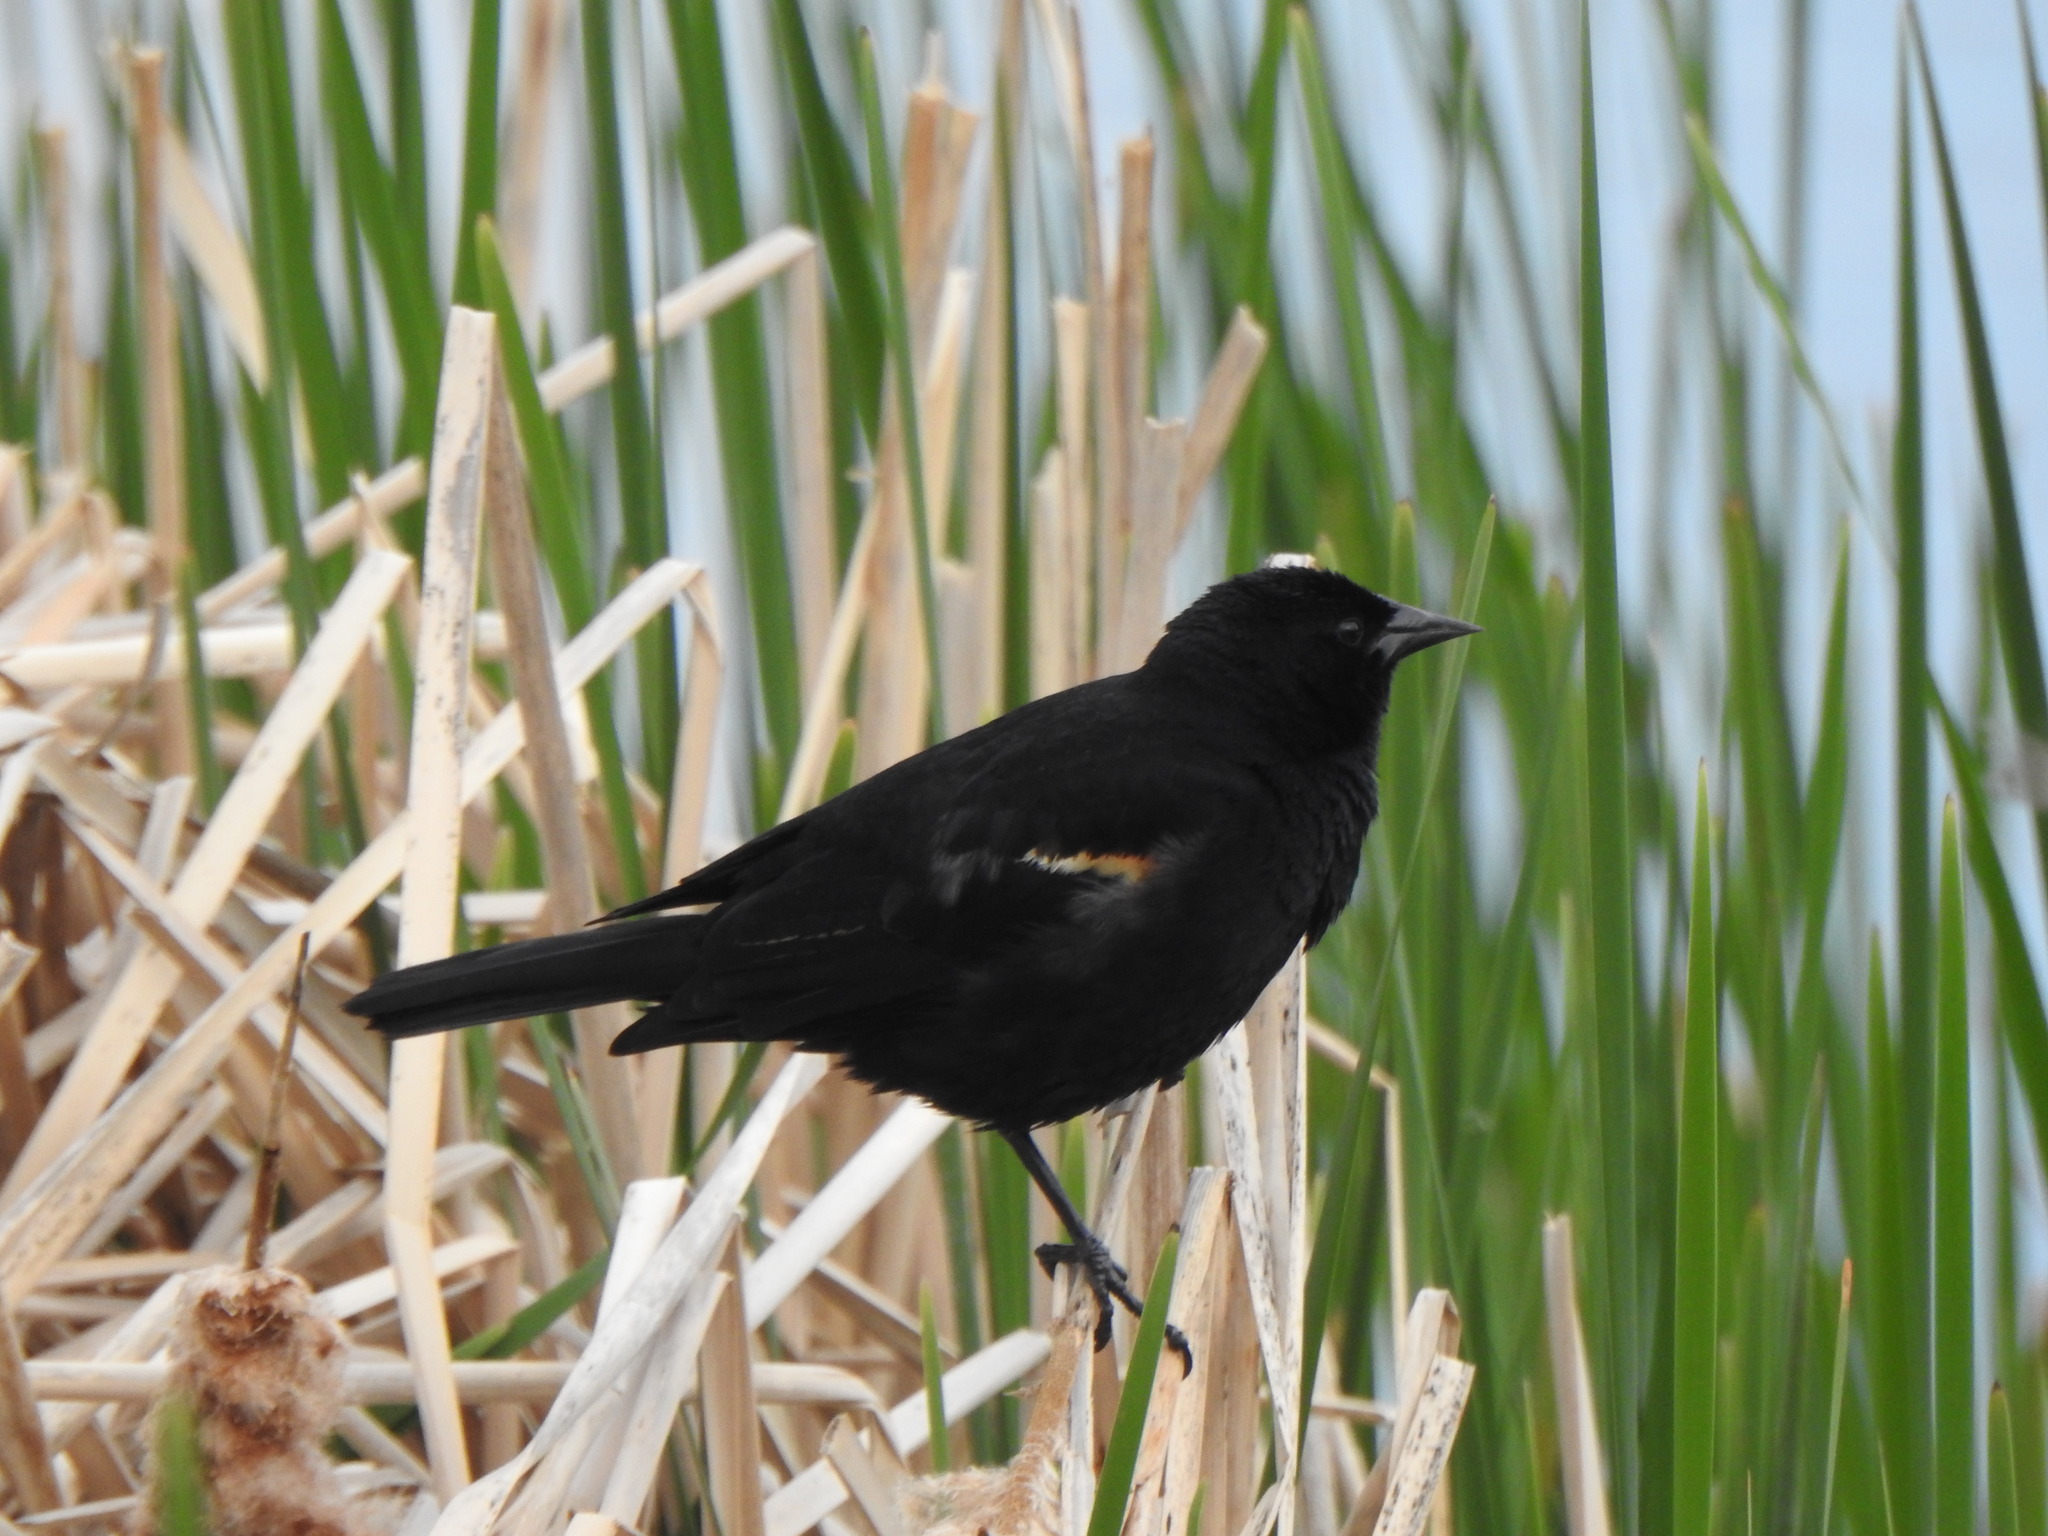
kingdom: Animalia
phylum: Chordata
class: Aves
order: Passeriformes
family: Icteridae
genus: Agelaius
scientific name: Agelaius phoeniceus
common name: Red-winged blackbird
